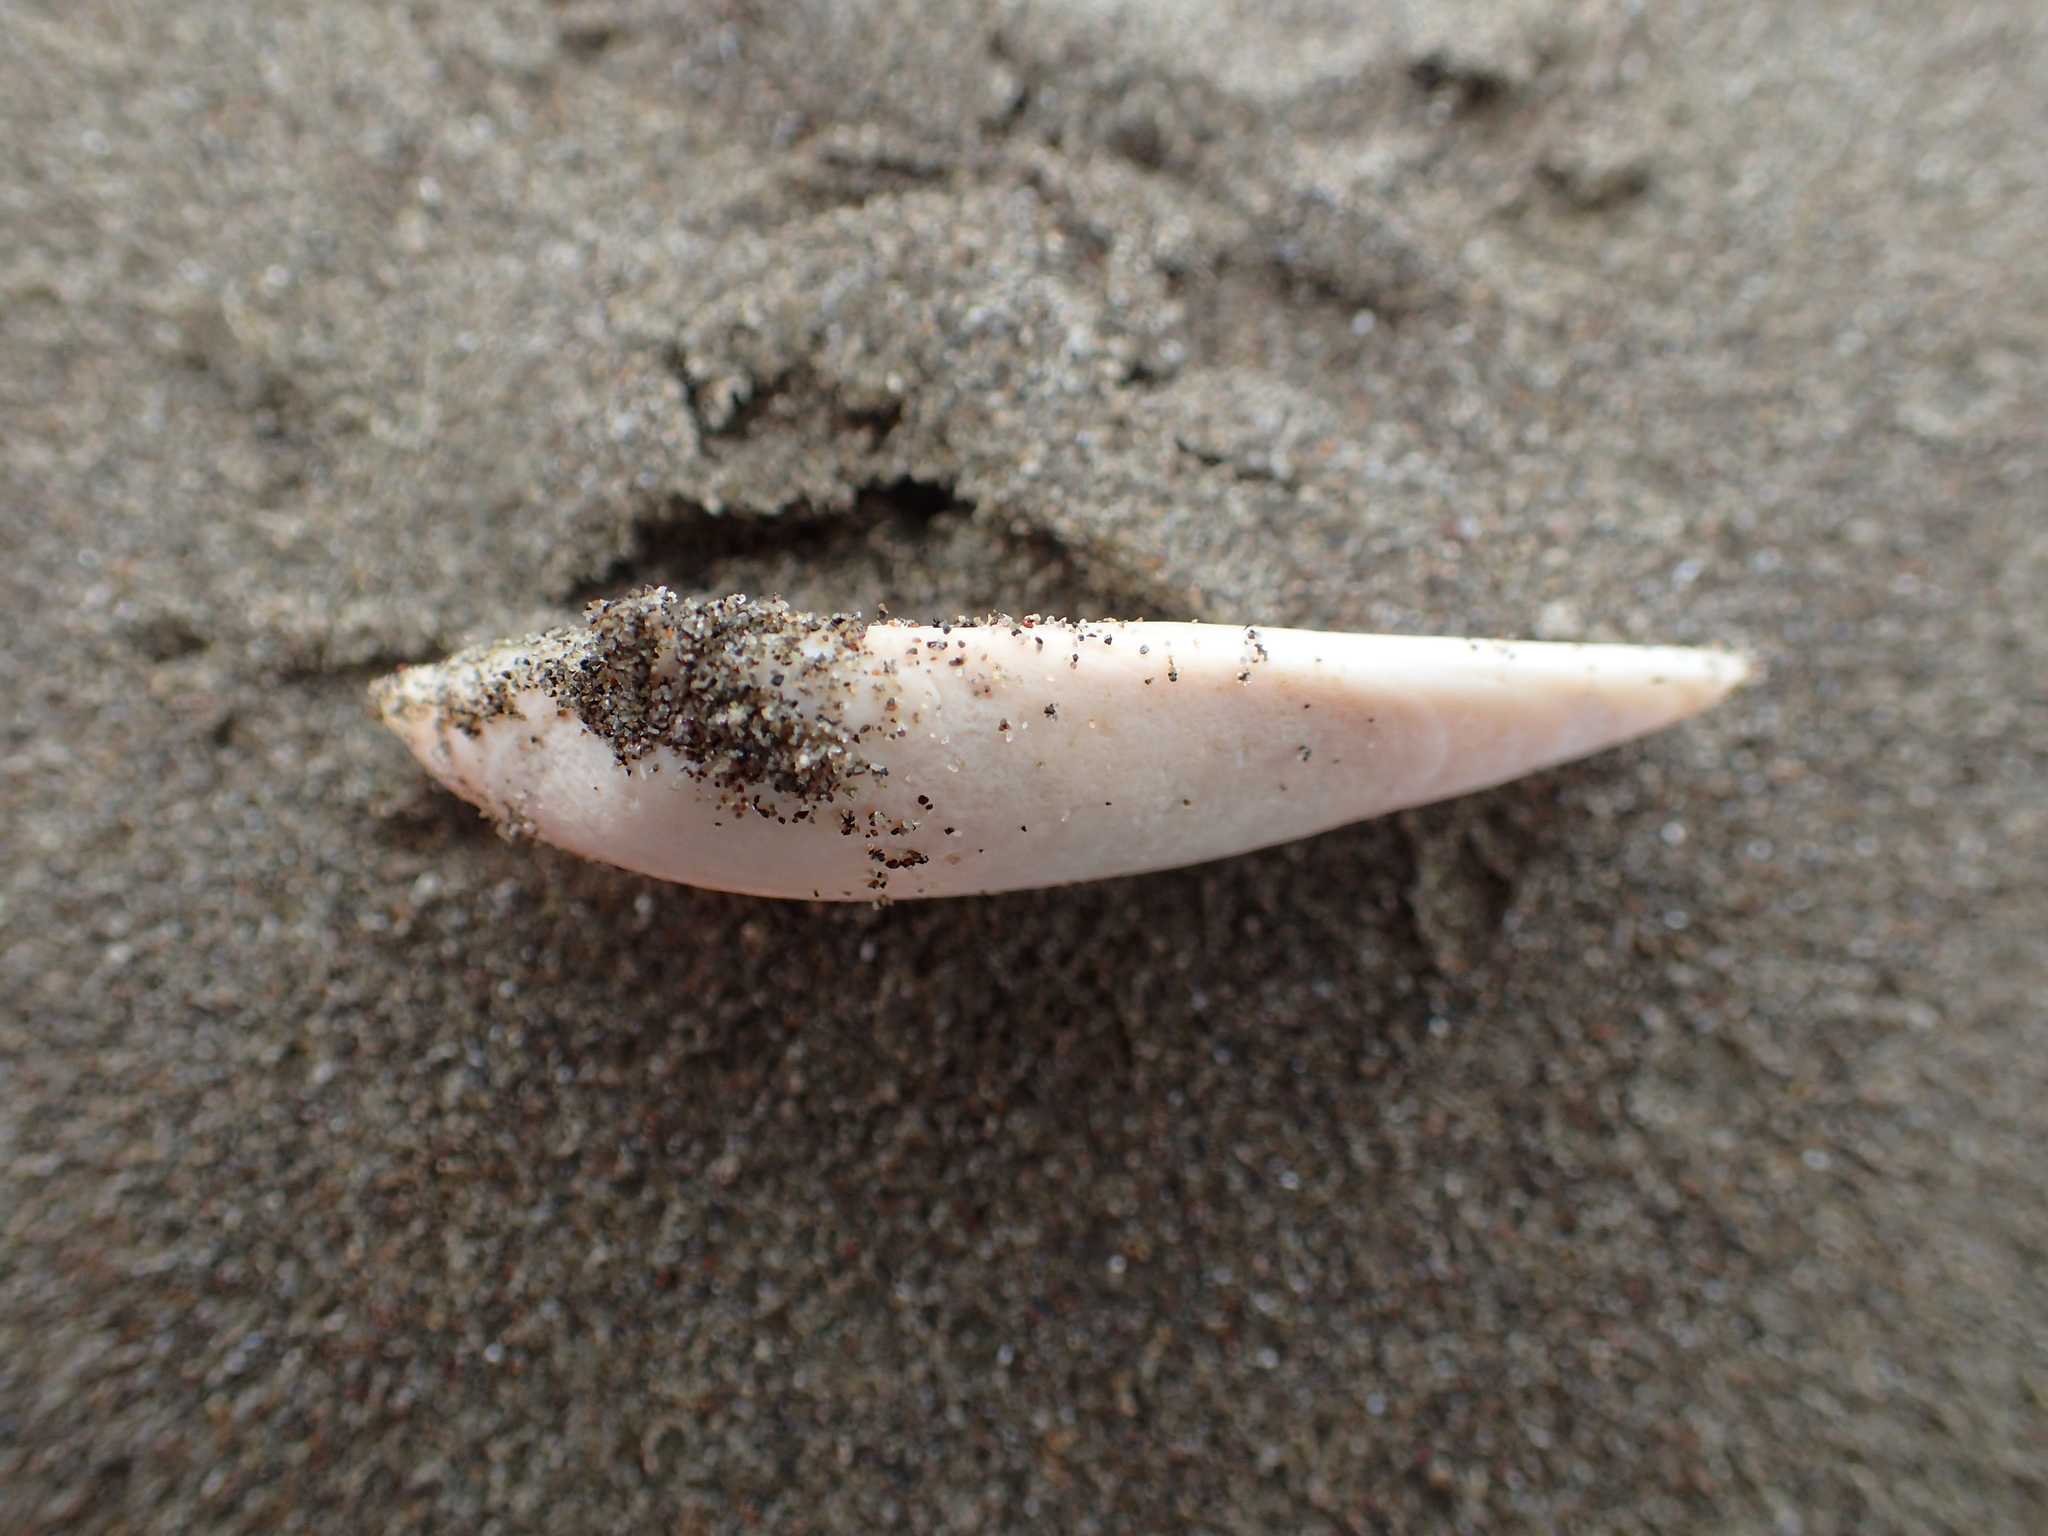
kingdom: Animalia
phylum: Mollusca
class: Bivalvia
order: Venerida
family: Mesodesmatidae
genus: Paphies
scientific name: Paphies subtriangulata
